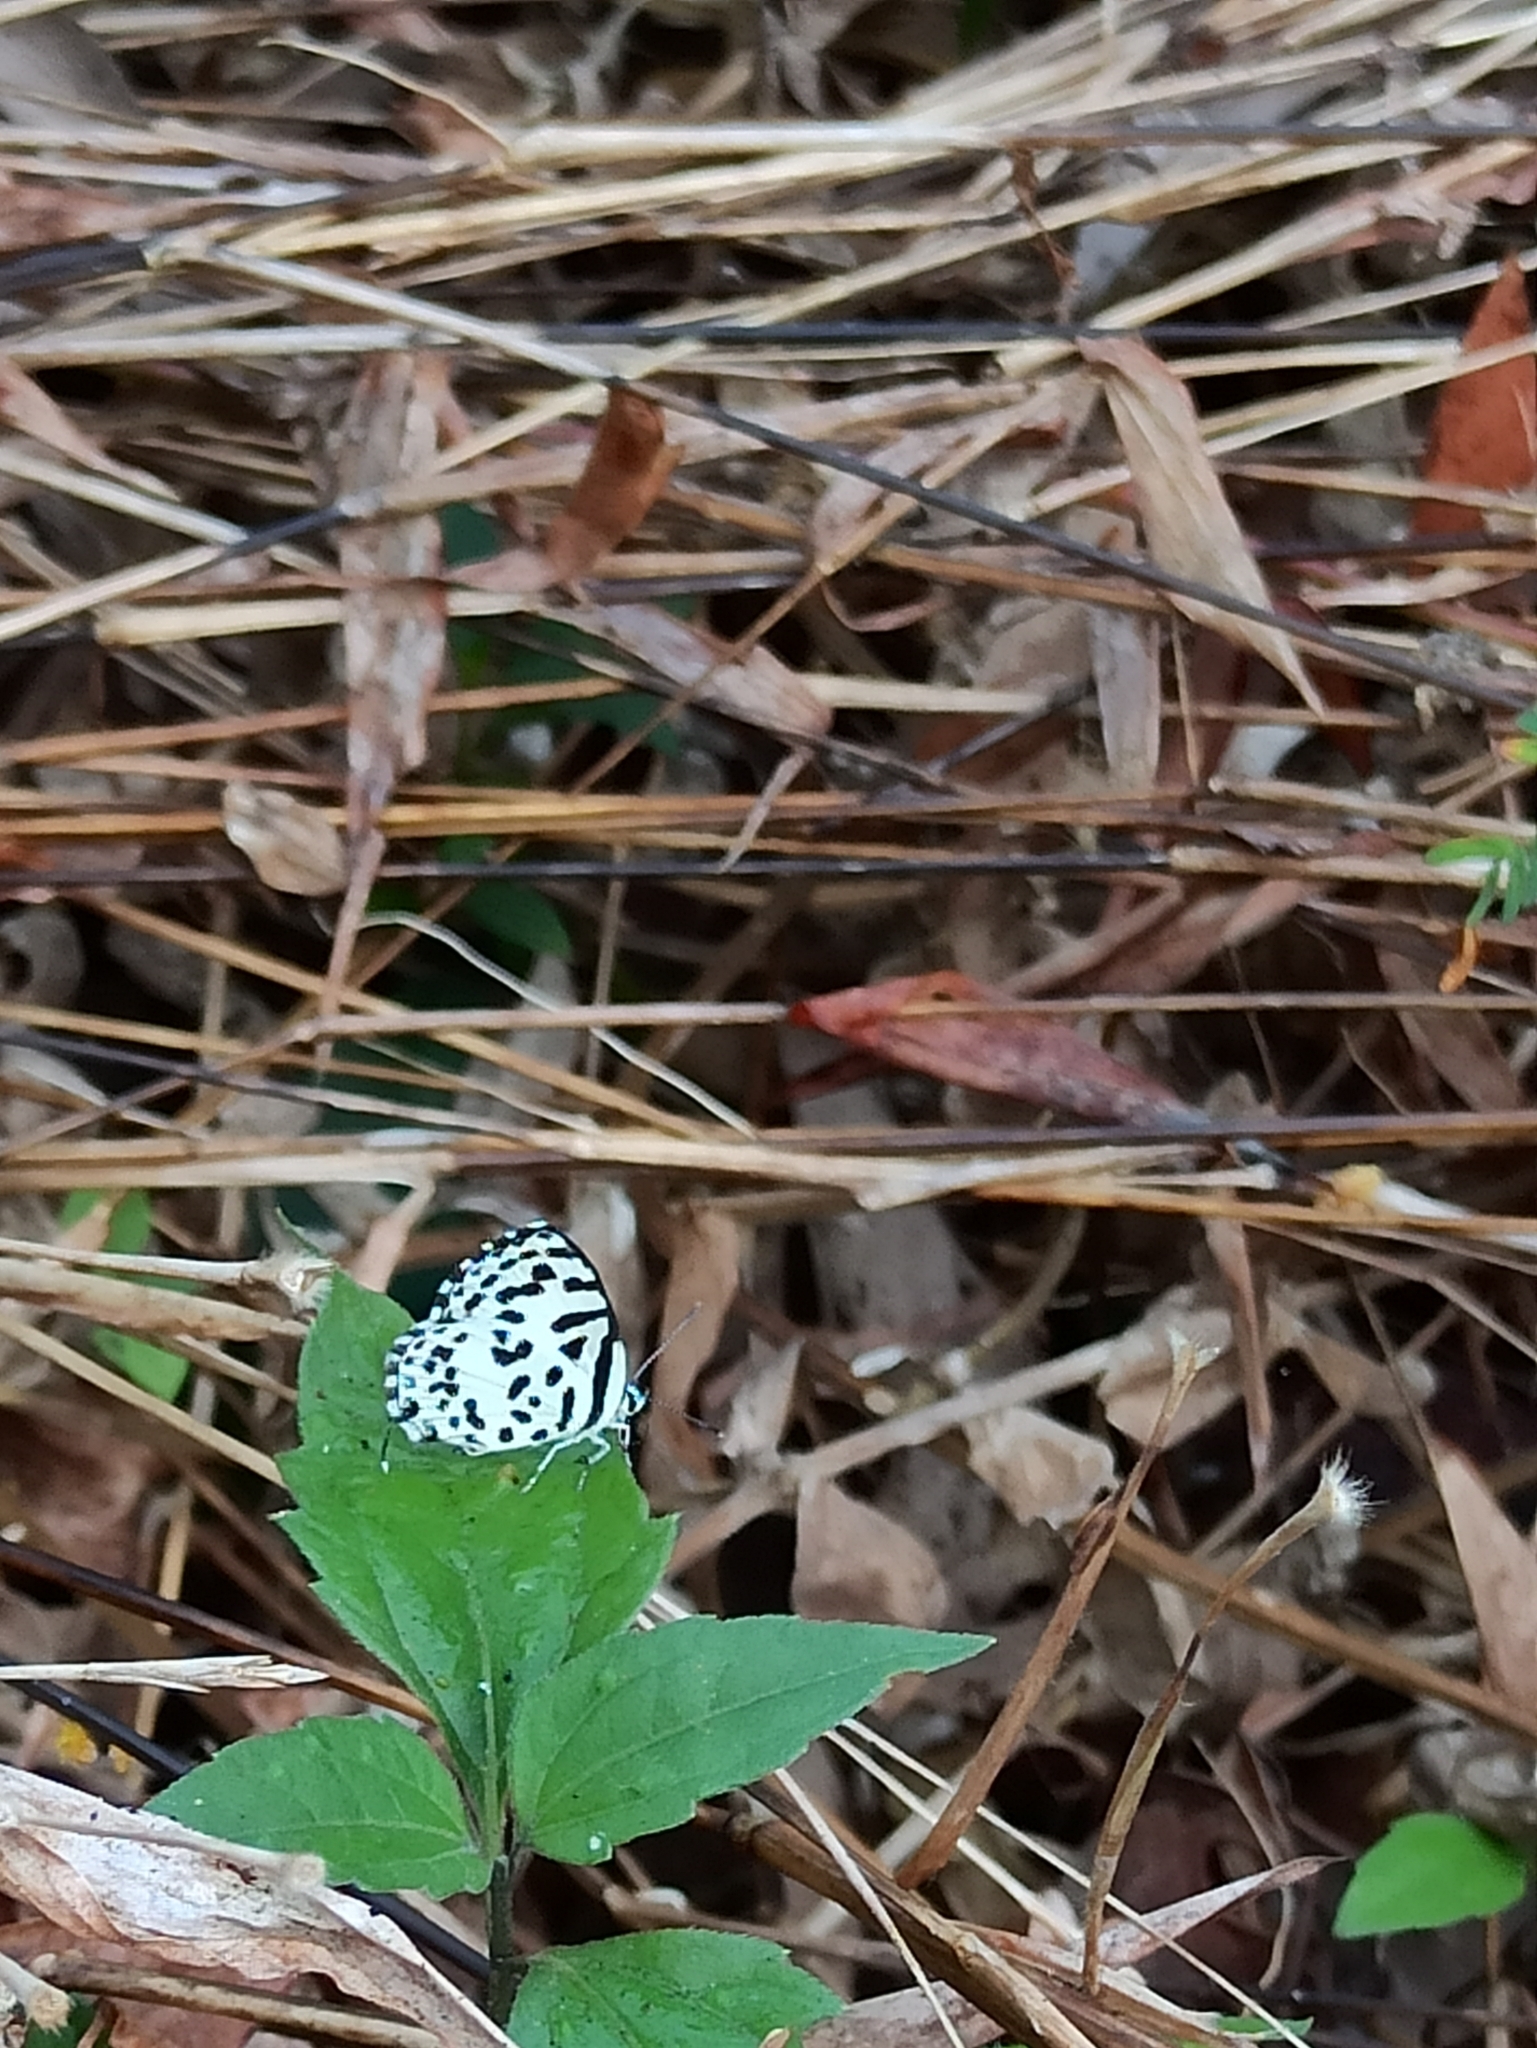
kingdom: Animalia
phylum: Arthropoda
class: Insecta
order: Lepidoptera
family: Lycaenidae
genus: Castalius
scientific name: Castalius rosimon
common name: Common pierrot
